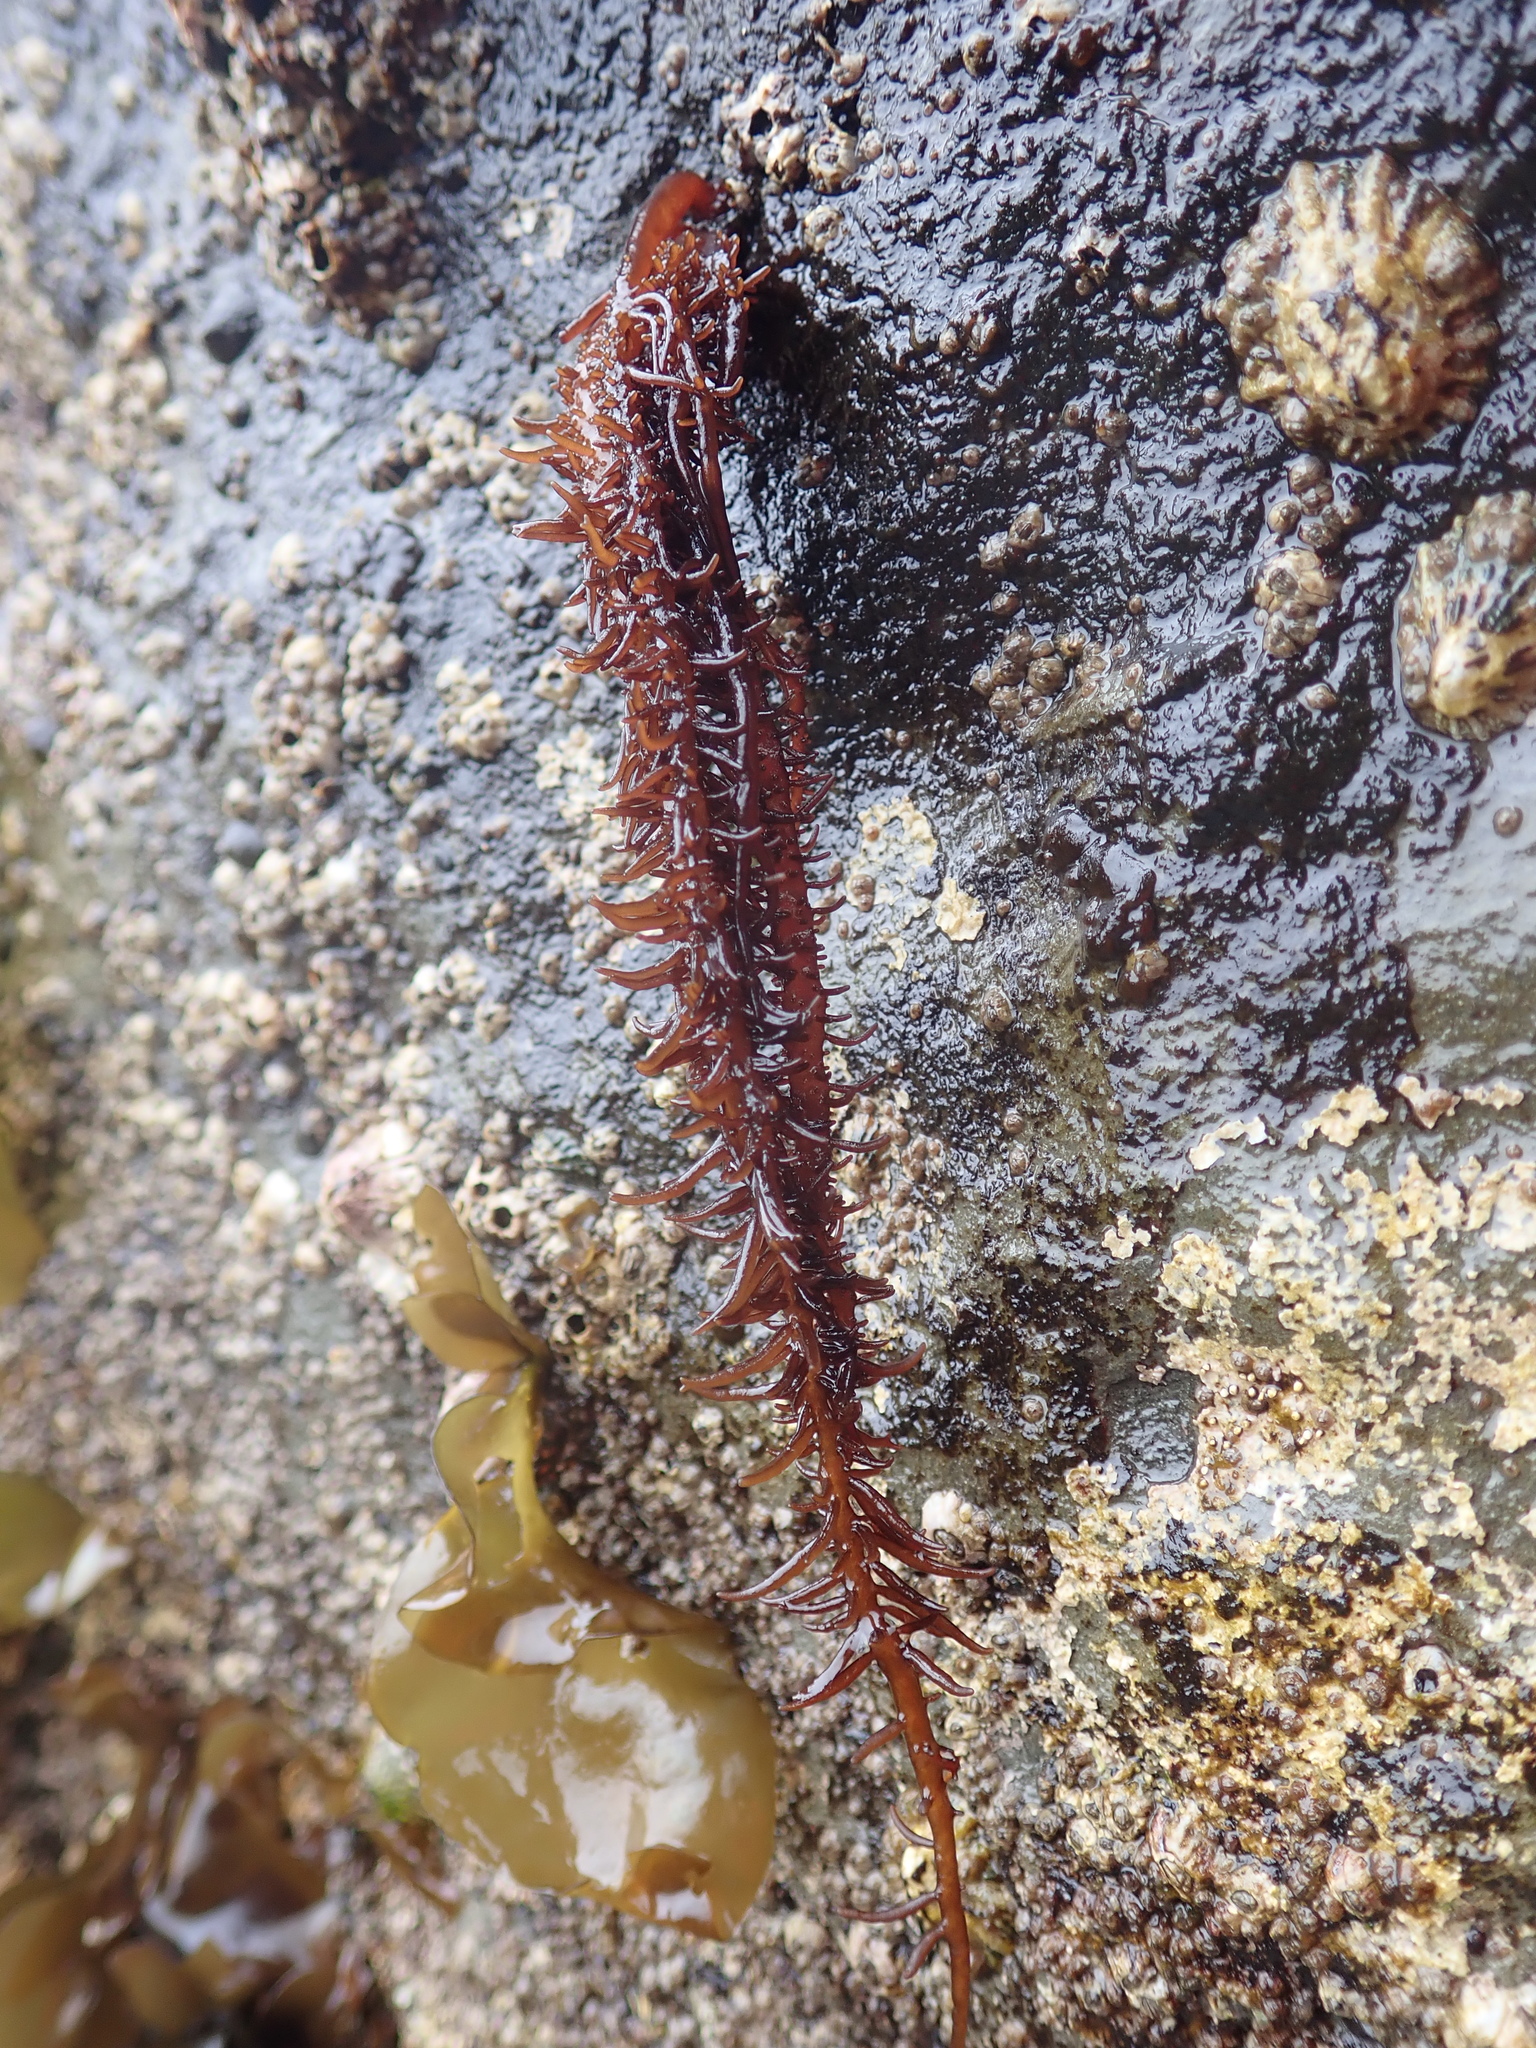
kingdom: Plantae
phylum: Rhodophyta
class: Florideophyceae
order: Nemaliales
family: Liagoraceae
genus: Cumagloia
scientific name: Cumagloia andersonii
